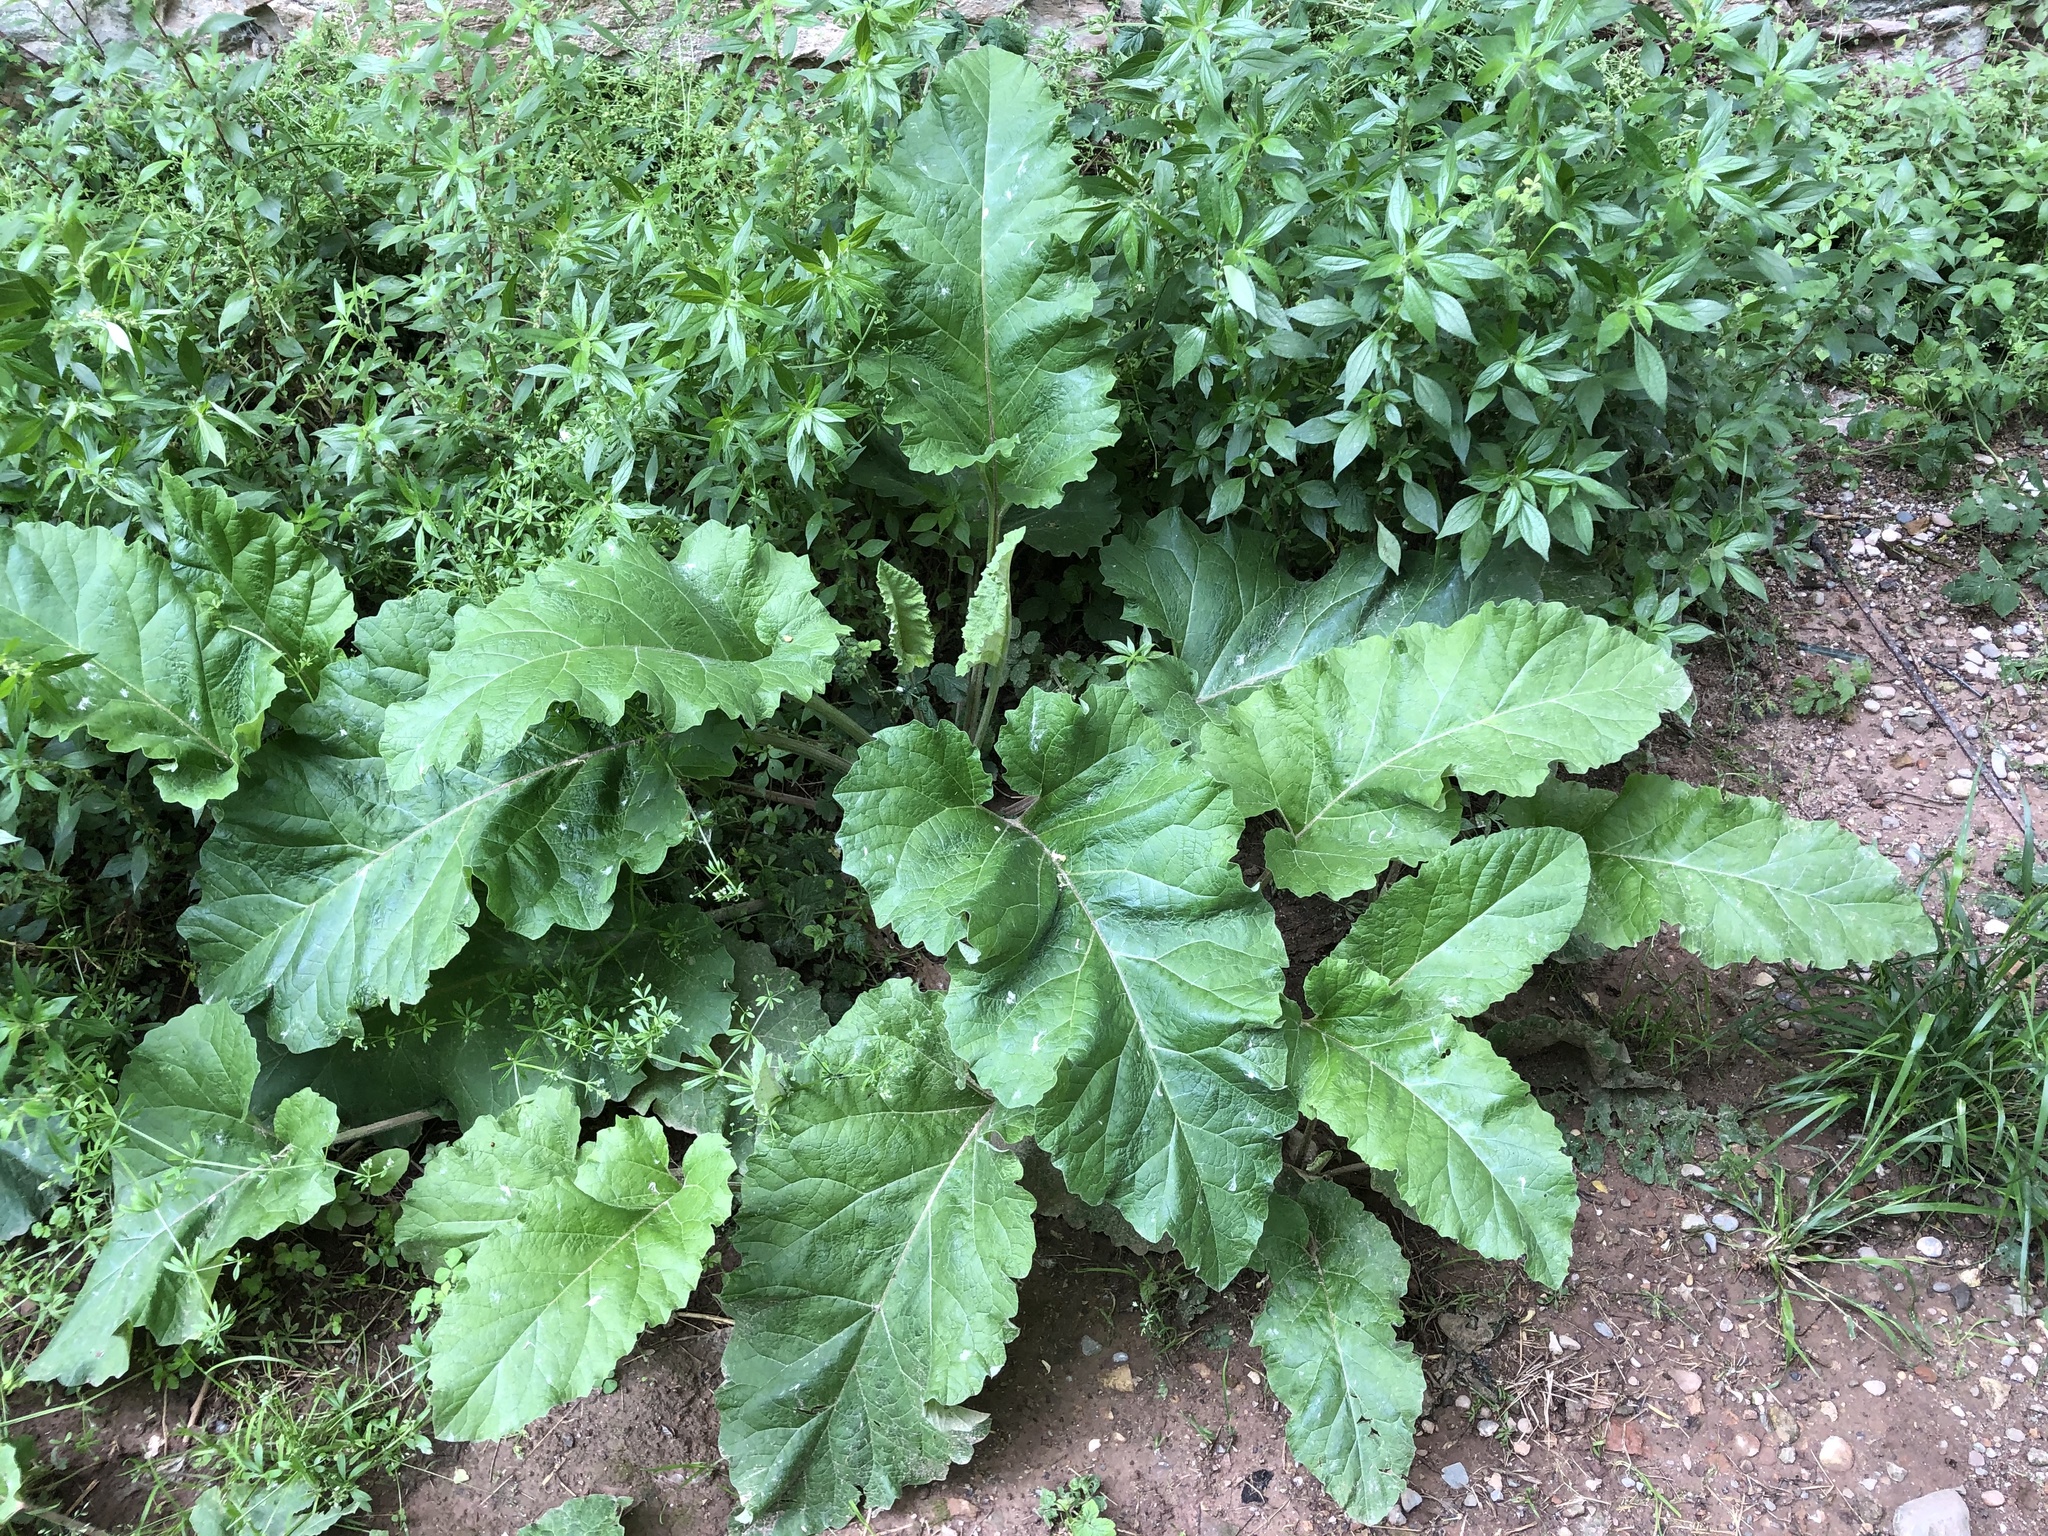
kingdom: Plantae
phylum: Tracheophyta
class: Magnoliopsida
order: Asterales
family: Asteraceae
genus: Arctium
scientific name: Arctium minus
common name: Lesser burdock
